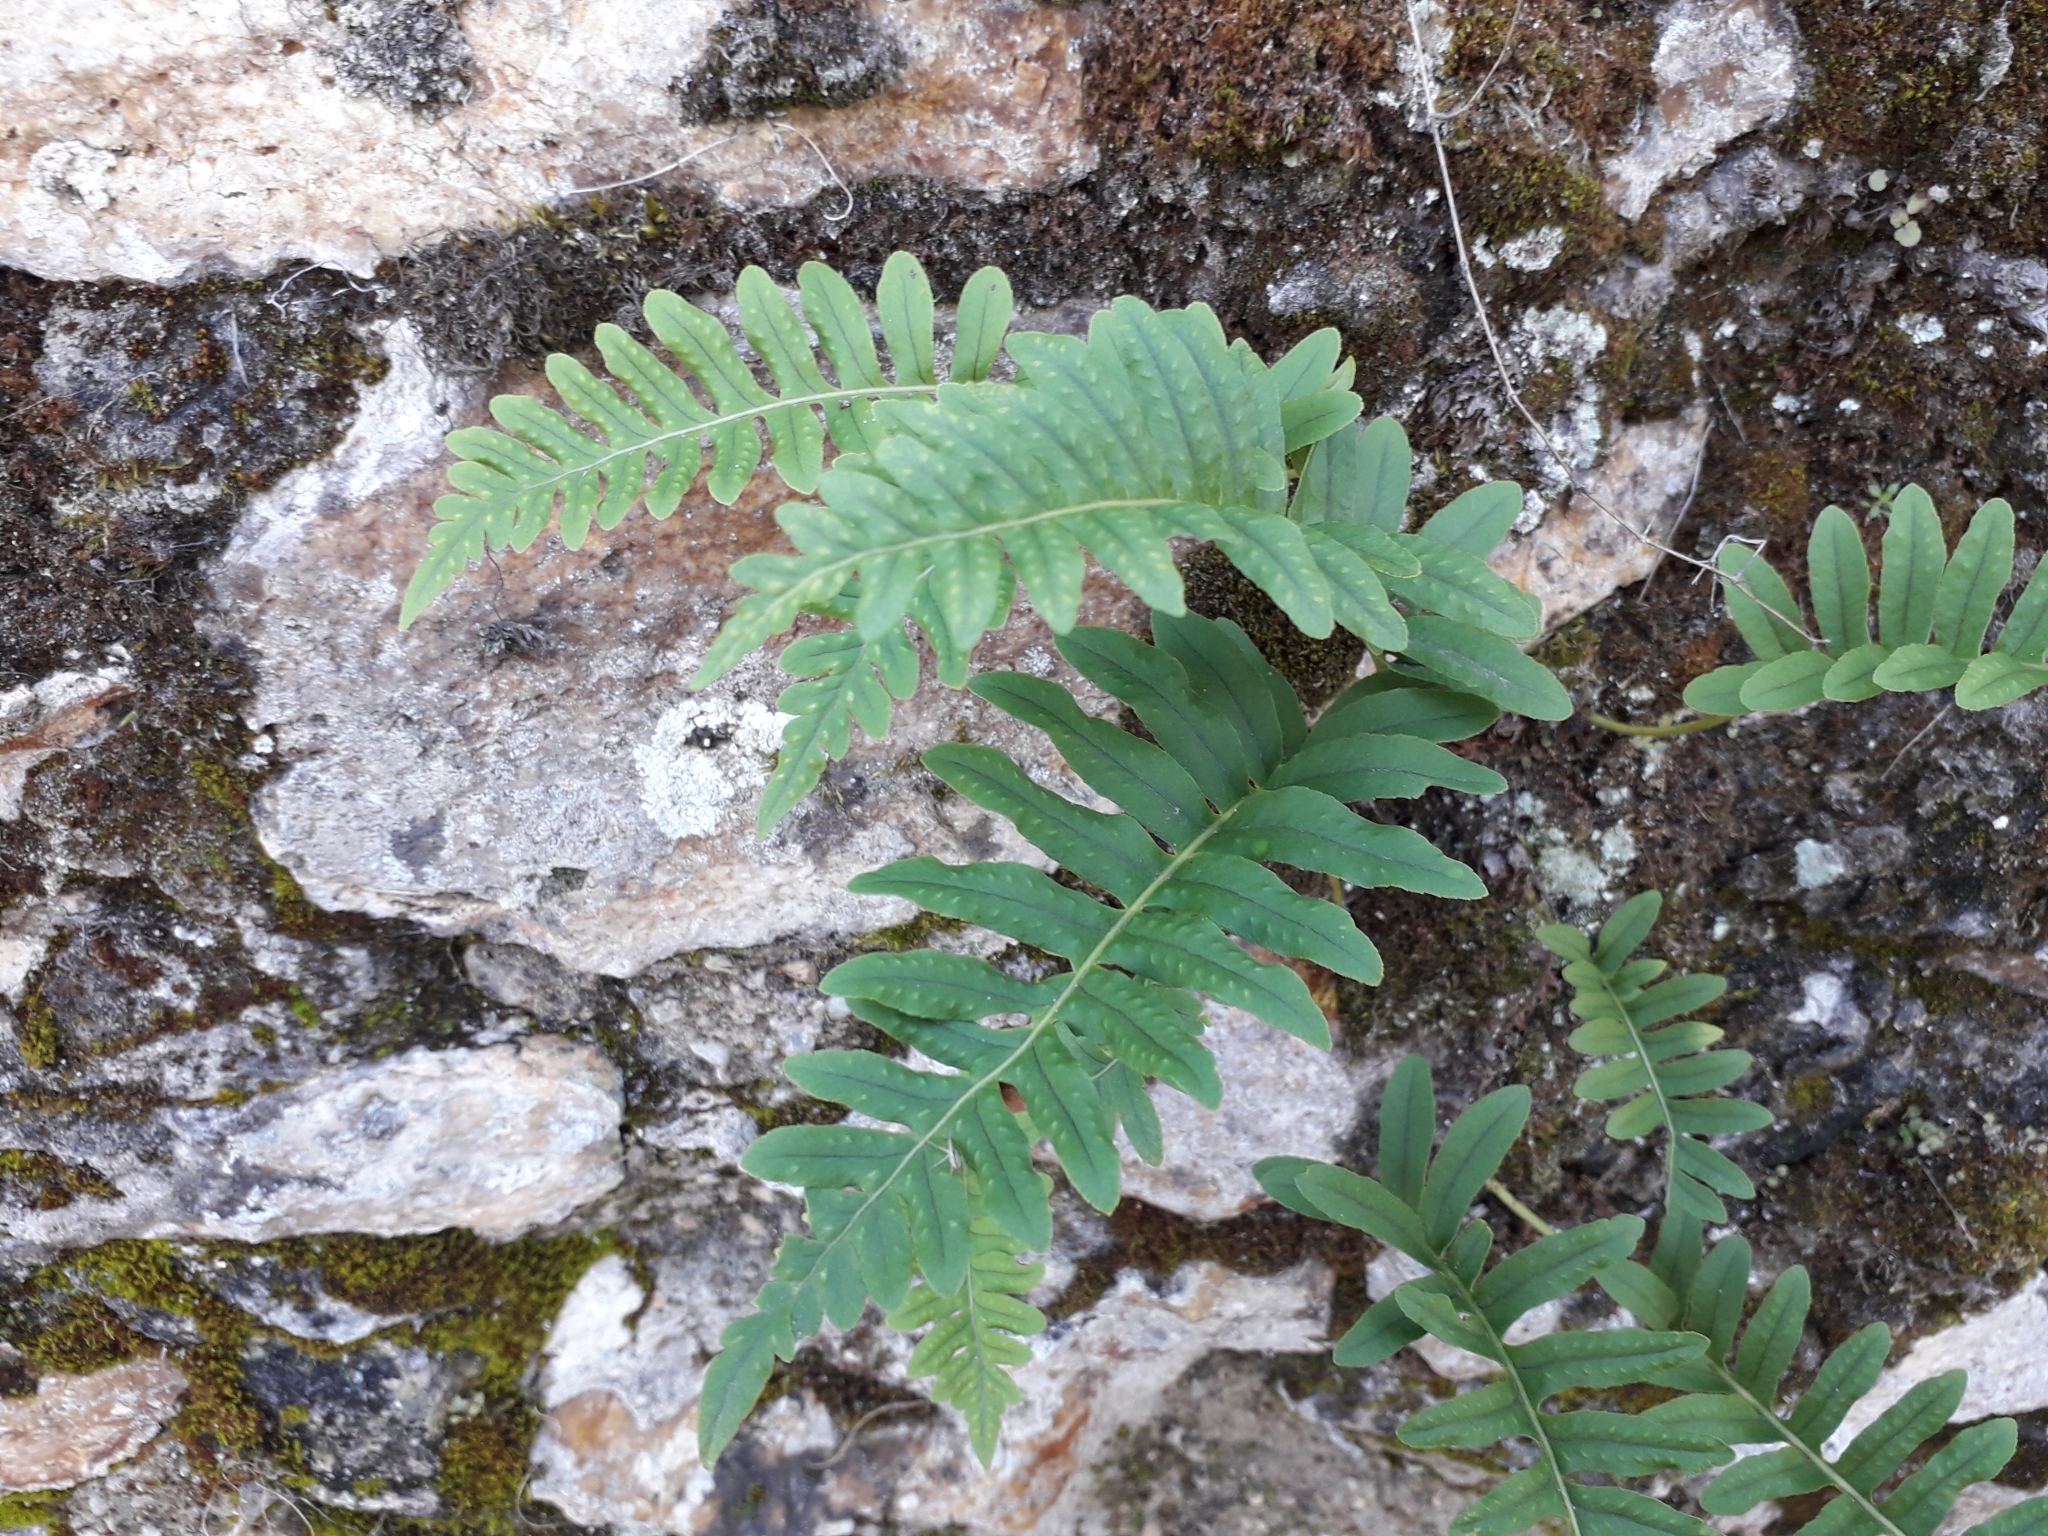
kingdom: Plantae
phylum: Tracheophyta
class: Polypodiopsida
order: Polypodiales
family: Polypodiaceae
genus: Polypodium
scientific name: Polypodium vulgare
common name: Common polypody
